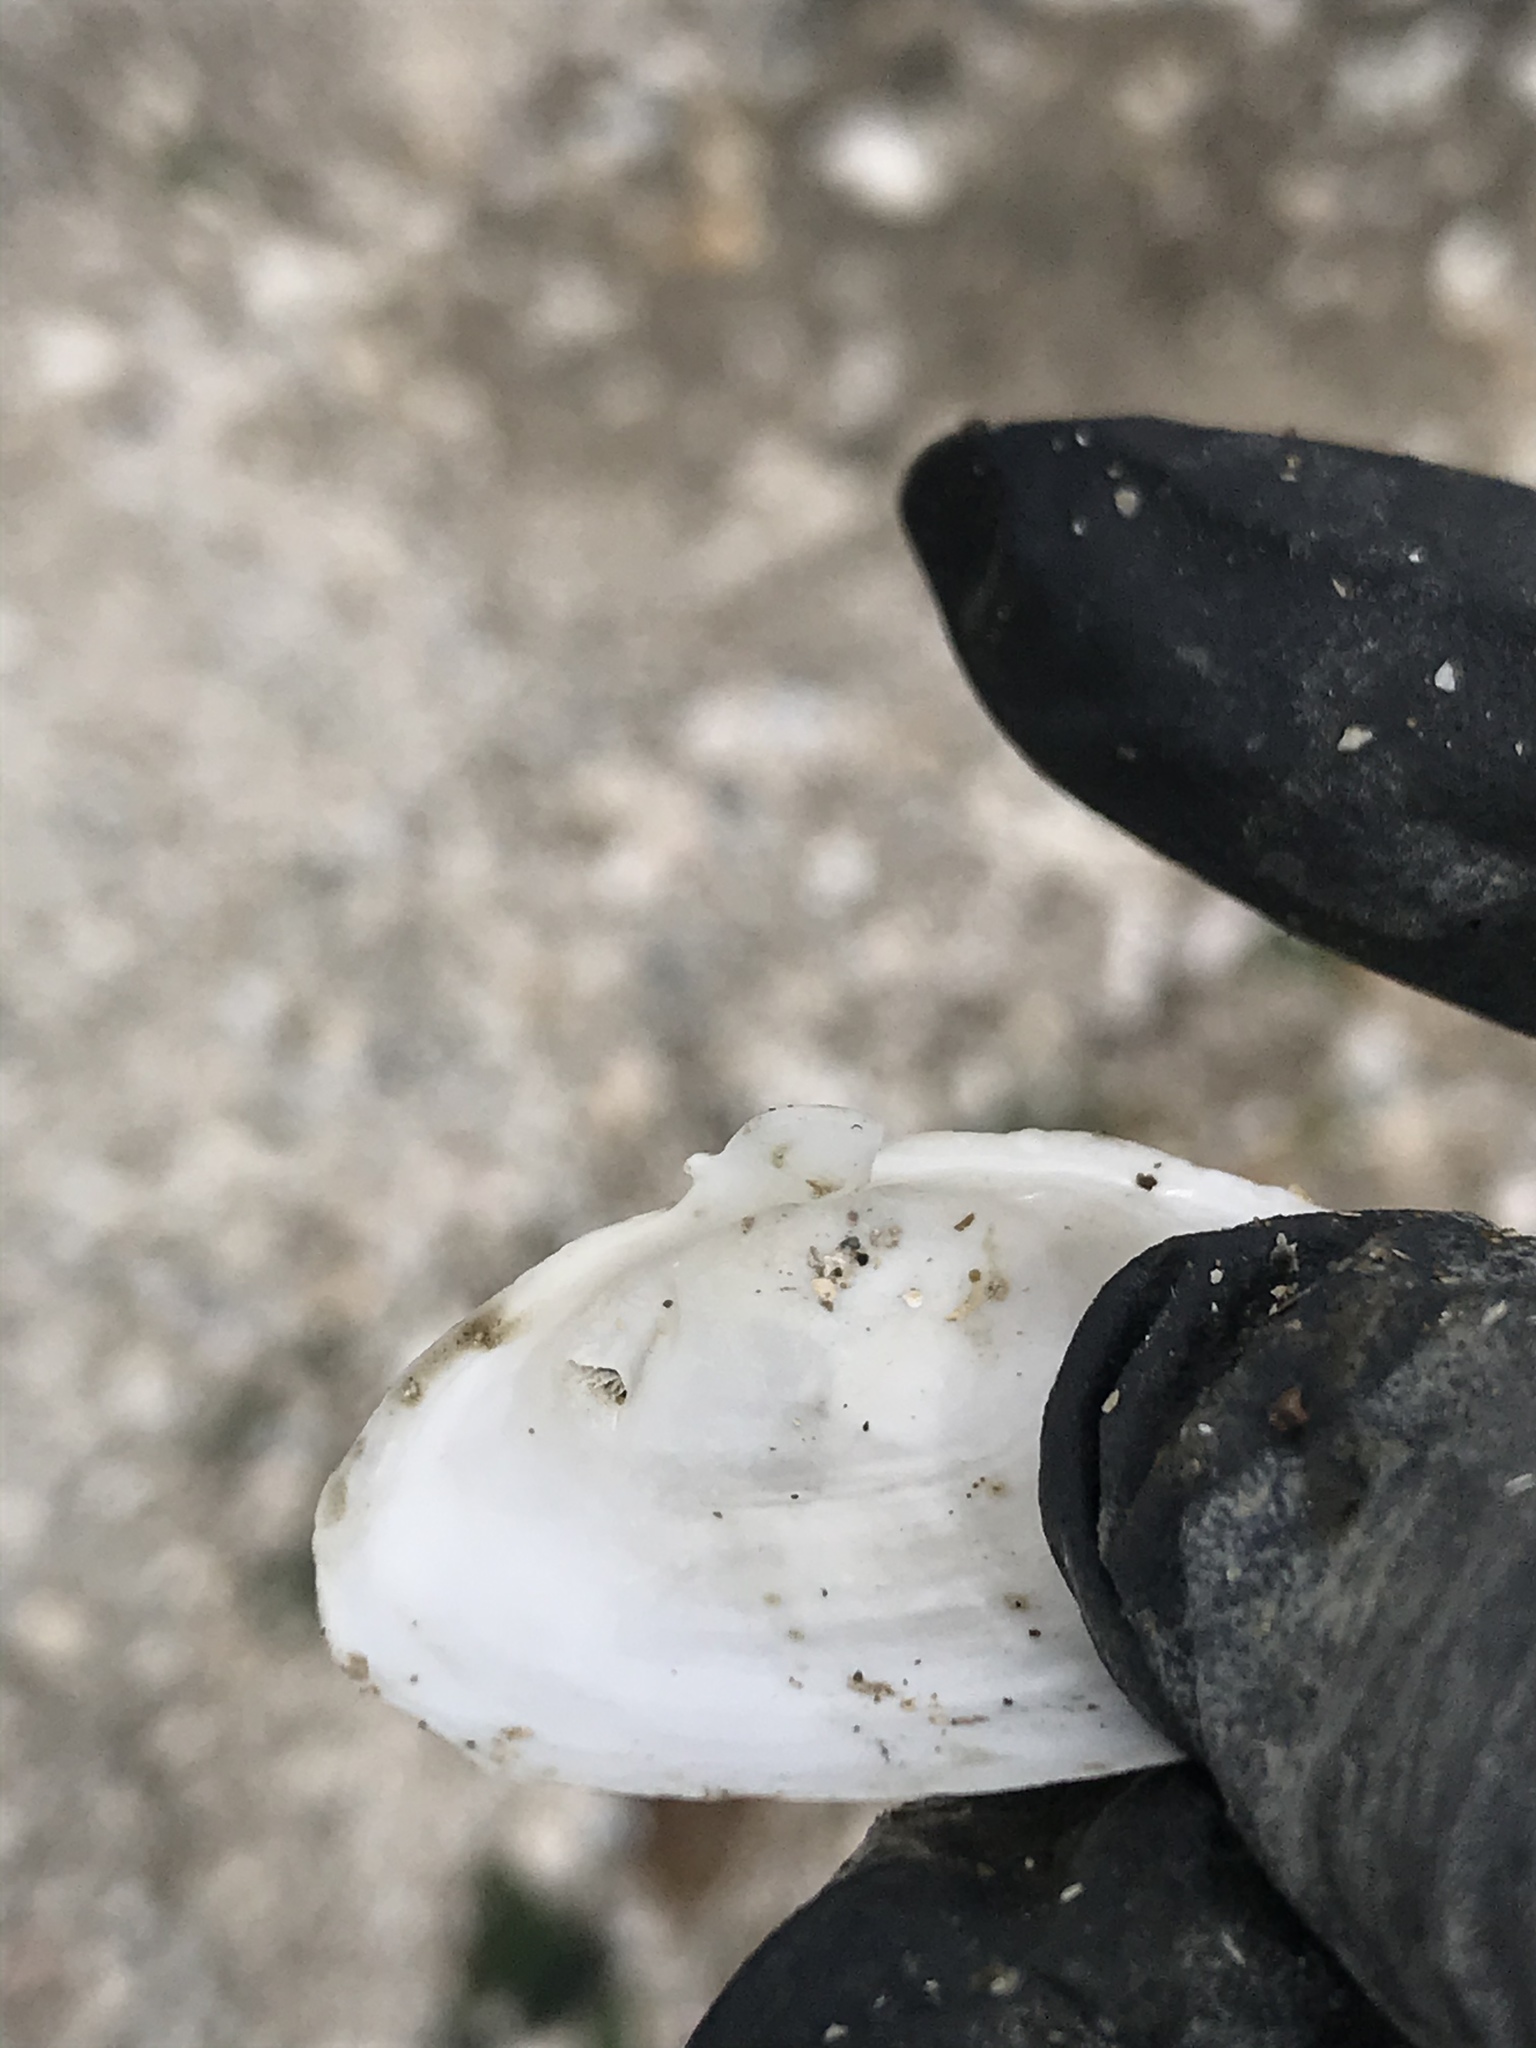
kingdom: Animalia
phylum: Mollusca
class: Bivalvia
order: Myida
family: Myidae
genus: Mya
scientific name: Mya arenaria
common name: Soft-shelled clam
